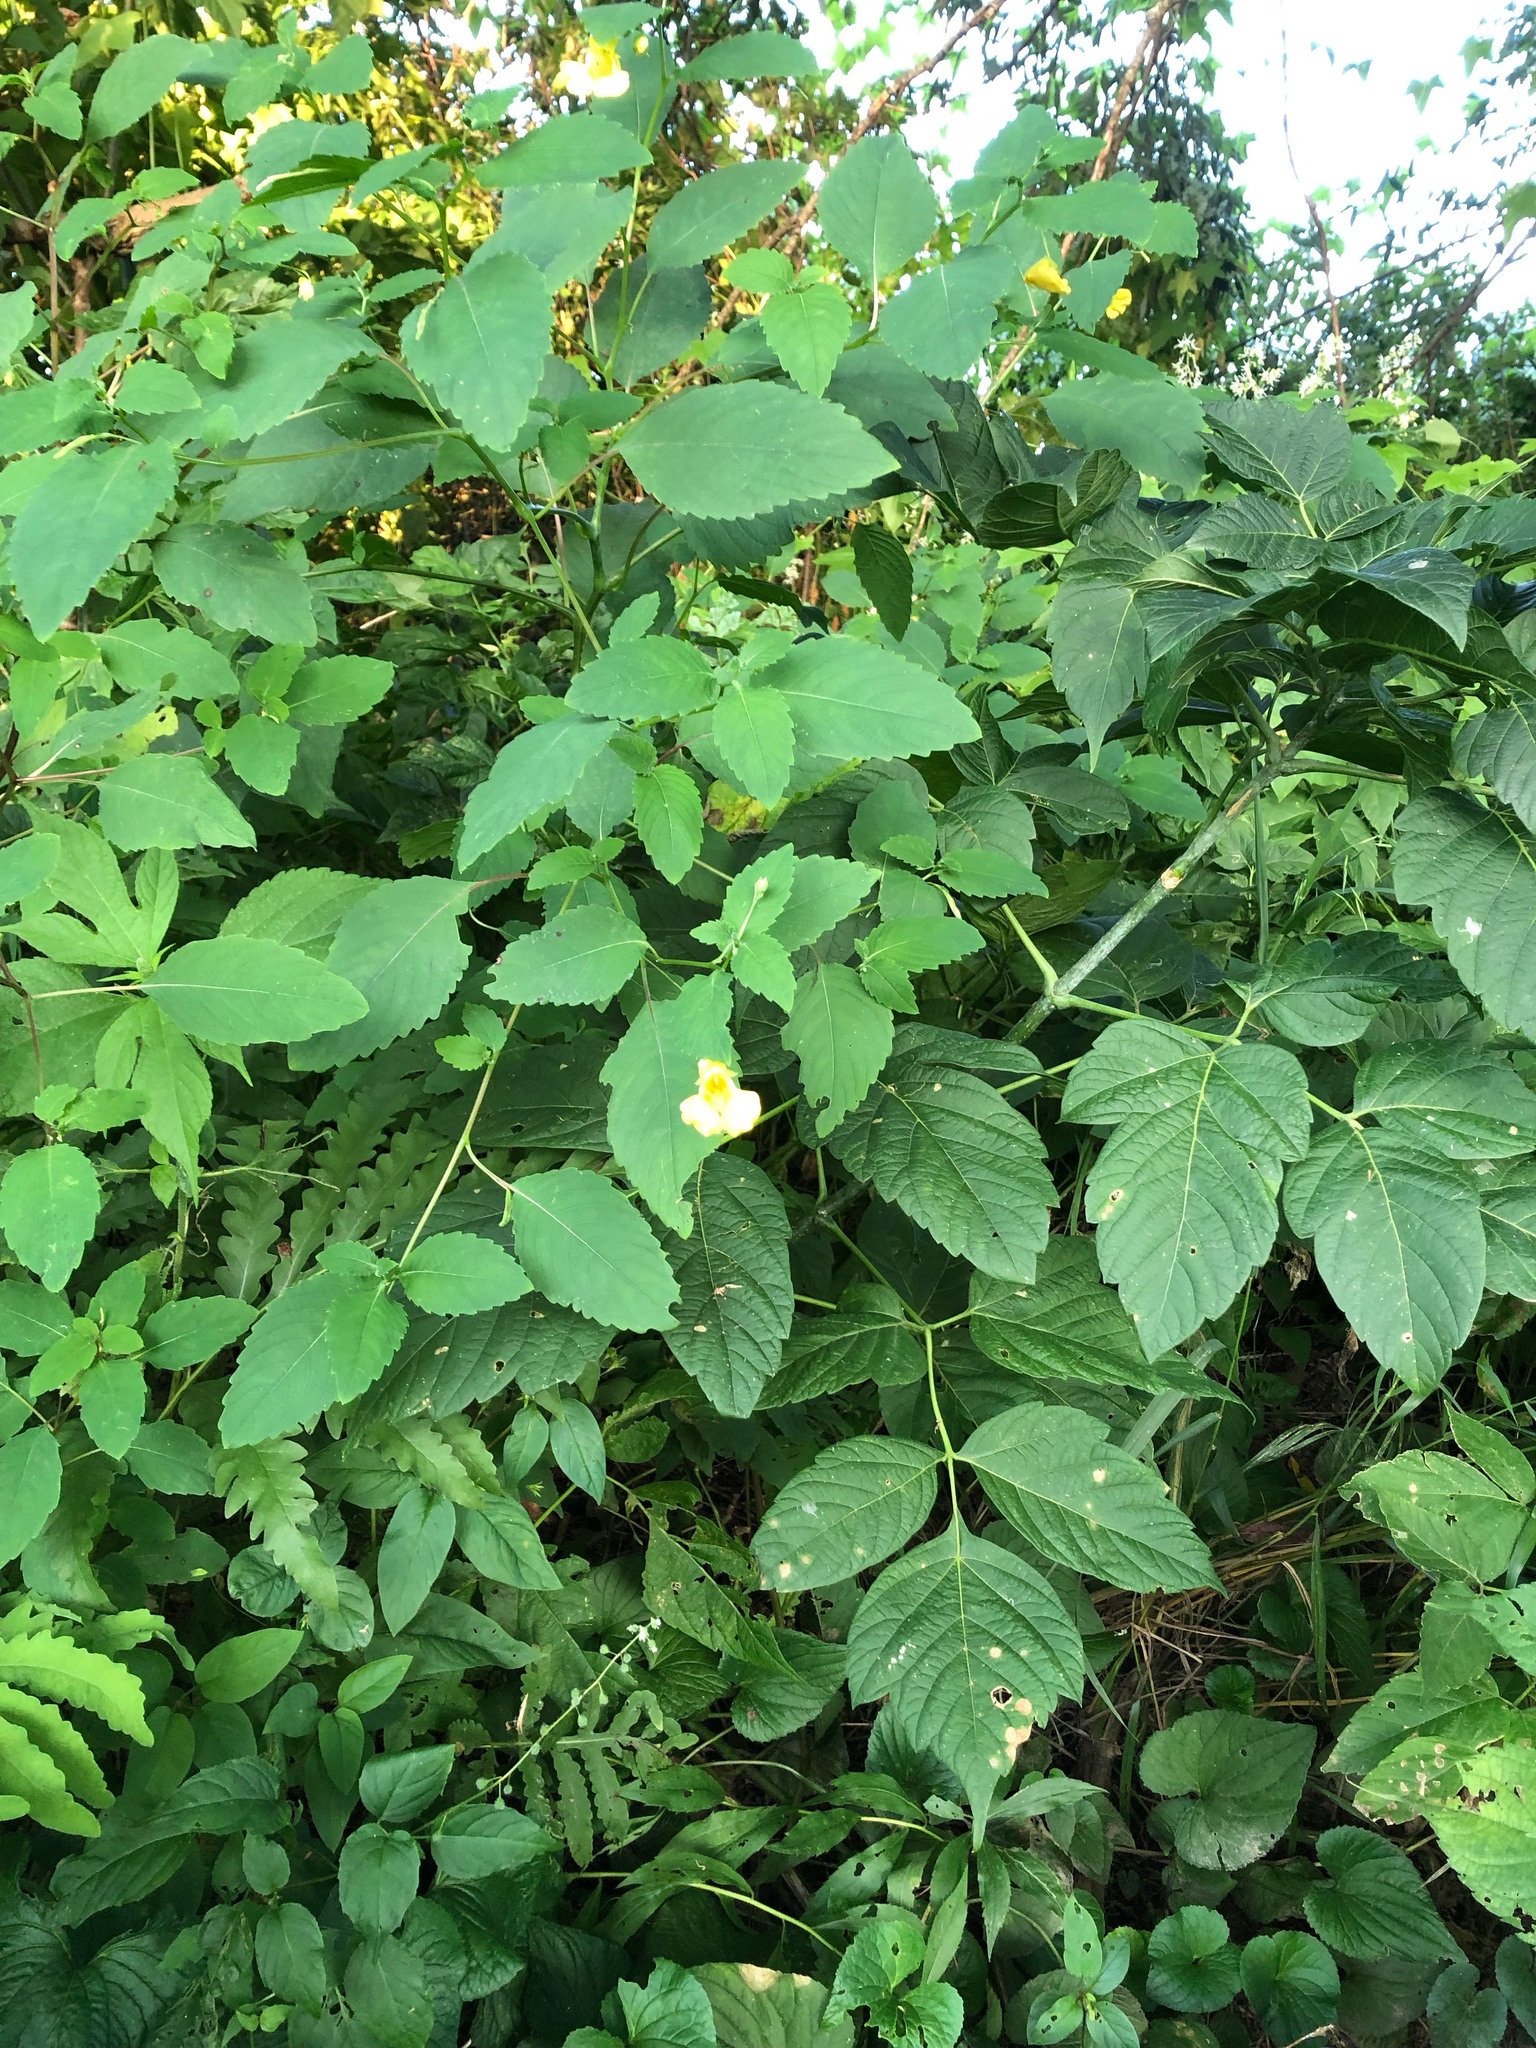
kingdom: Plantae
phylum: Tracheophyta
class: Magnoliopsida
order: Ericales
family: Balsaminaceae
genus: Impatiens
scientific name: Impatiens pallida
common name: Pale snapweed
